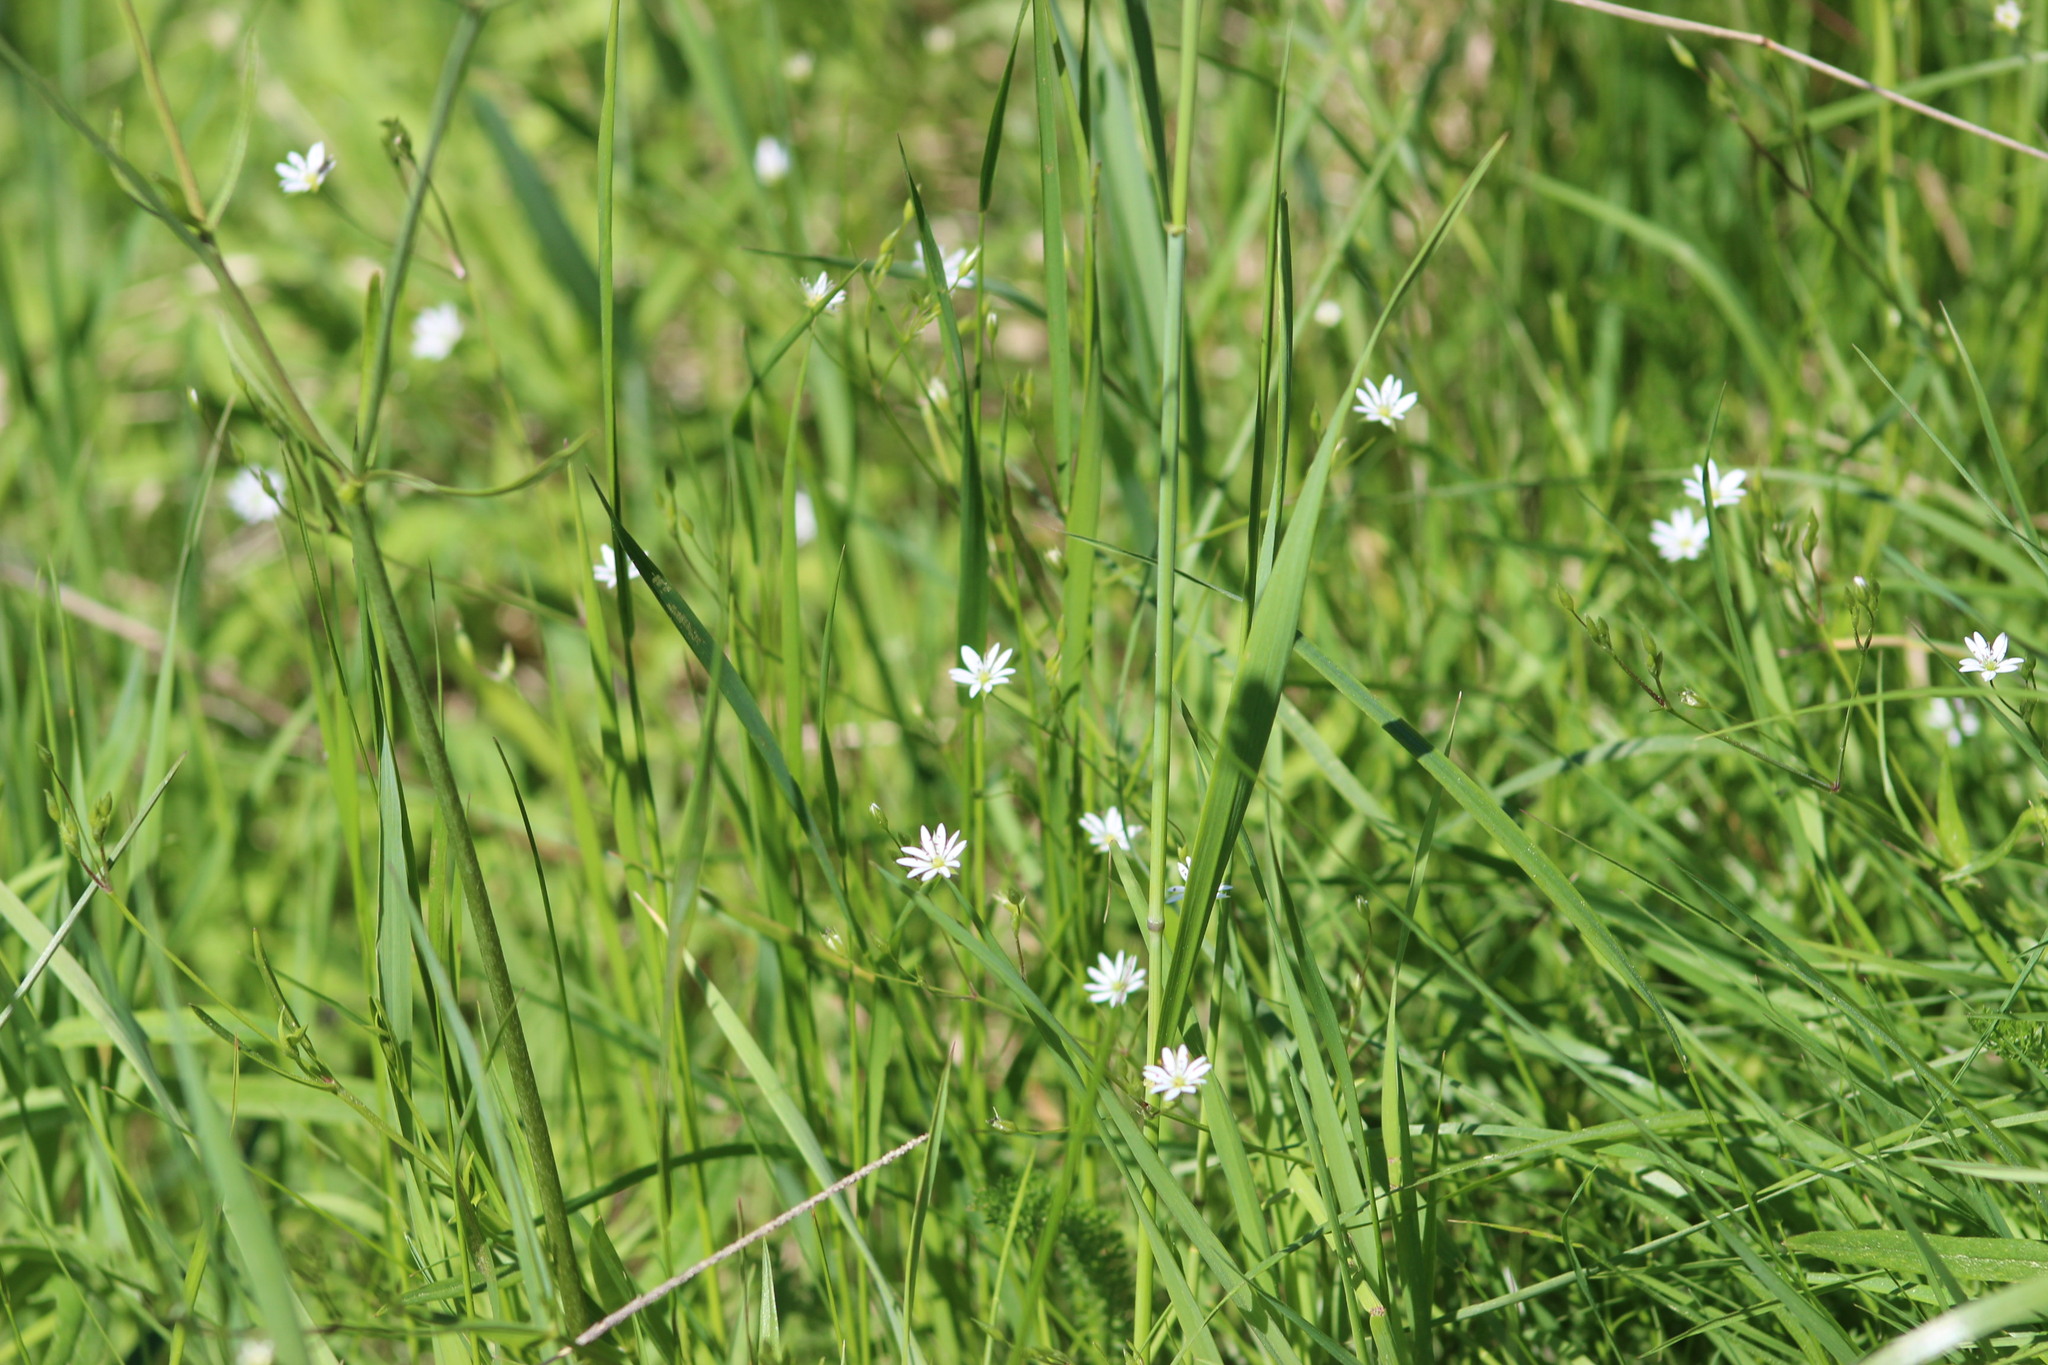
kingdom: Plantae
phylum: Tracheophyta
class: Magnoliopsida
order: Caryophyllales
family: Caryophyllaceae
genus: Stellaria
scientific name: Stellaria graminea
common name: Grass-like starwort
